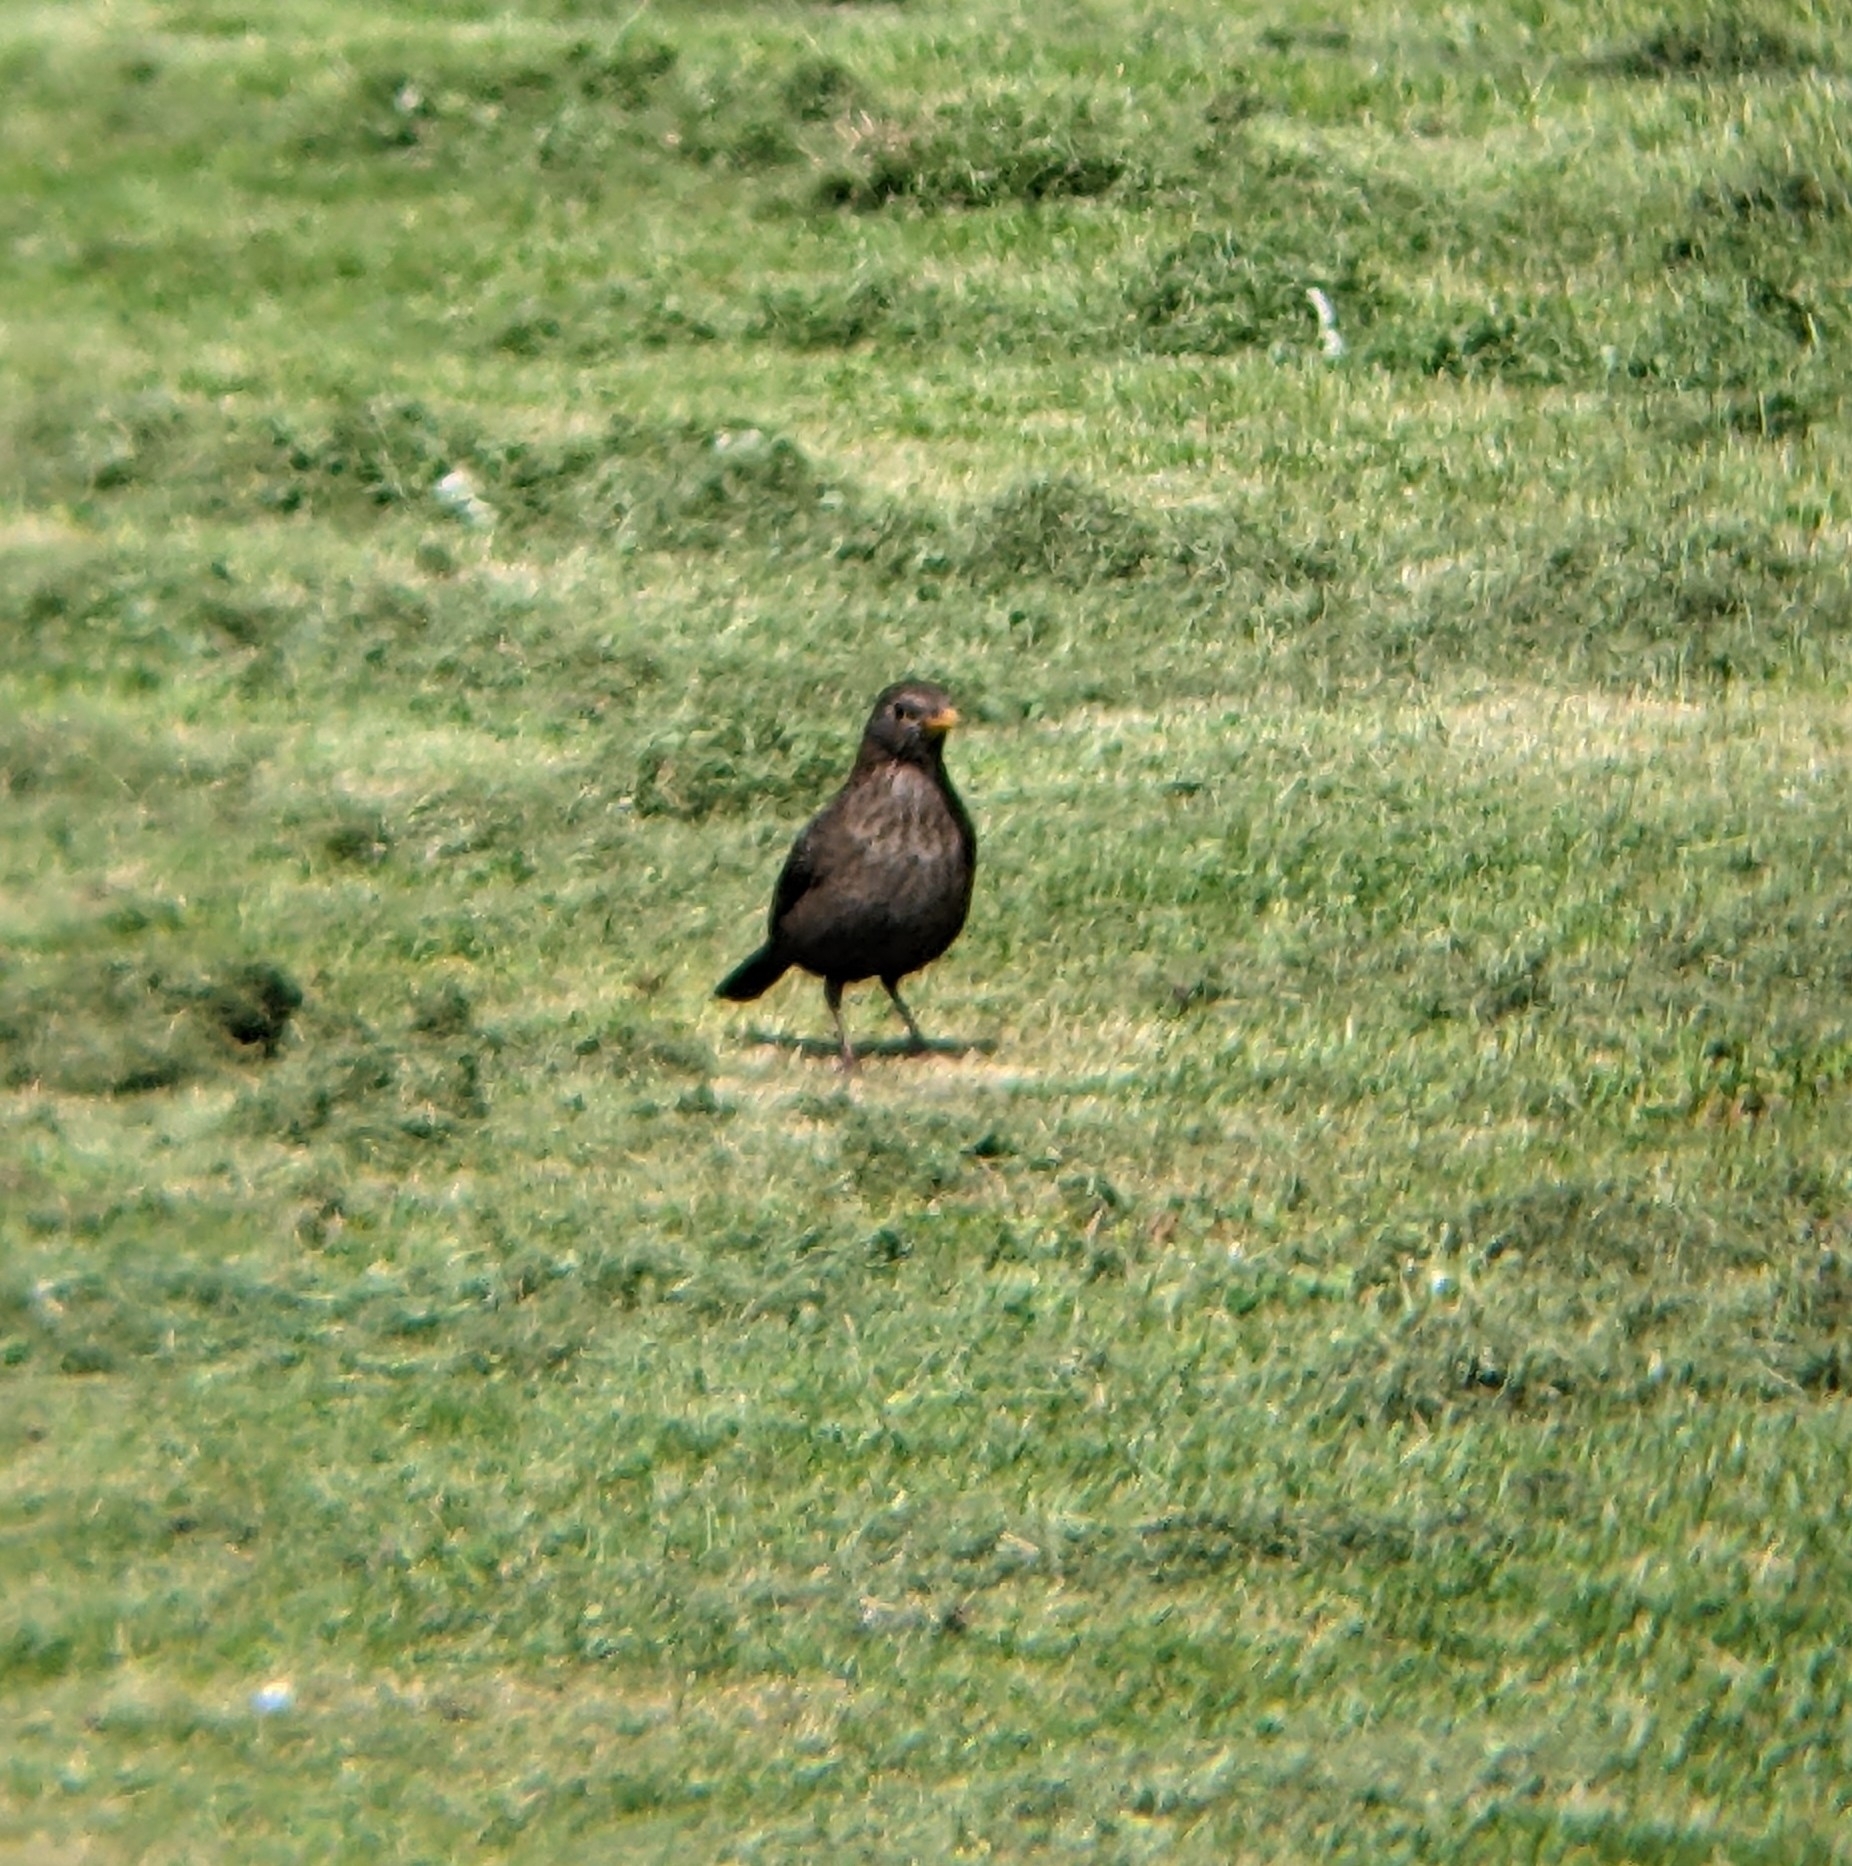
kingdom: Animalia
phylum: Chordata
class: Aves
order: Passeriformes
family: Turdidae
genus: Turdus
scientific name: Turdus merula
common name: Common blackbird
